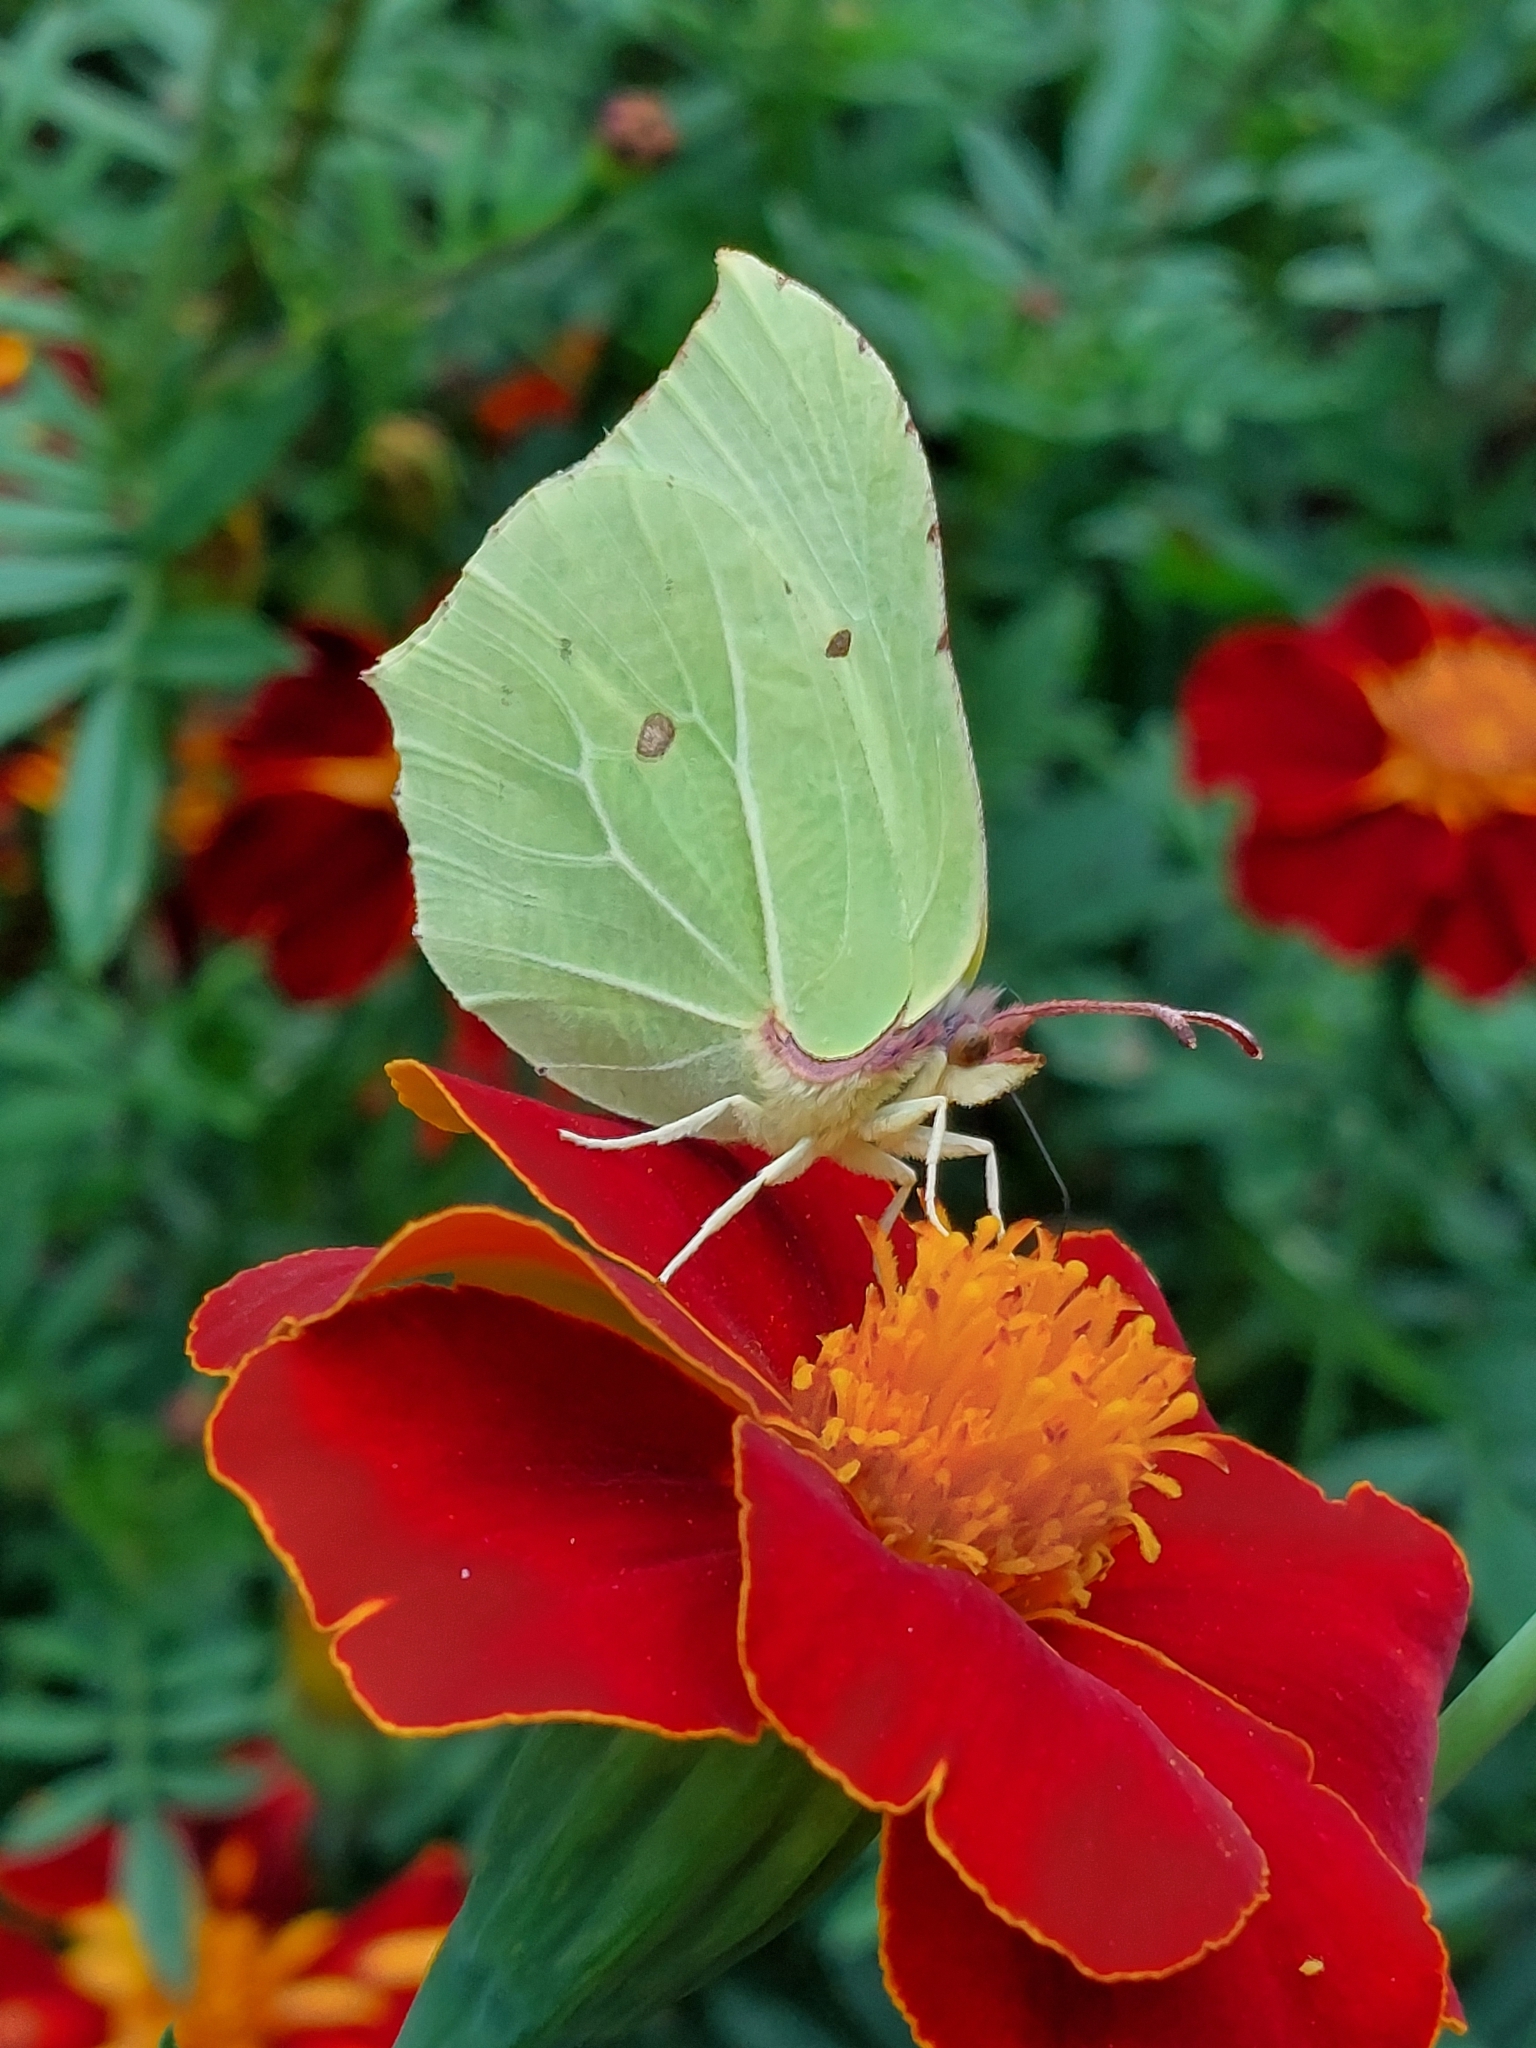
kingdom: Animalia
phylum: Arthropoda
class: Insecta
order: Lepidoptera
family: Pieridae
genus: Gonepteryx
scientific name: Gonepteryx rhamni
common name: Brimstone
